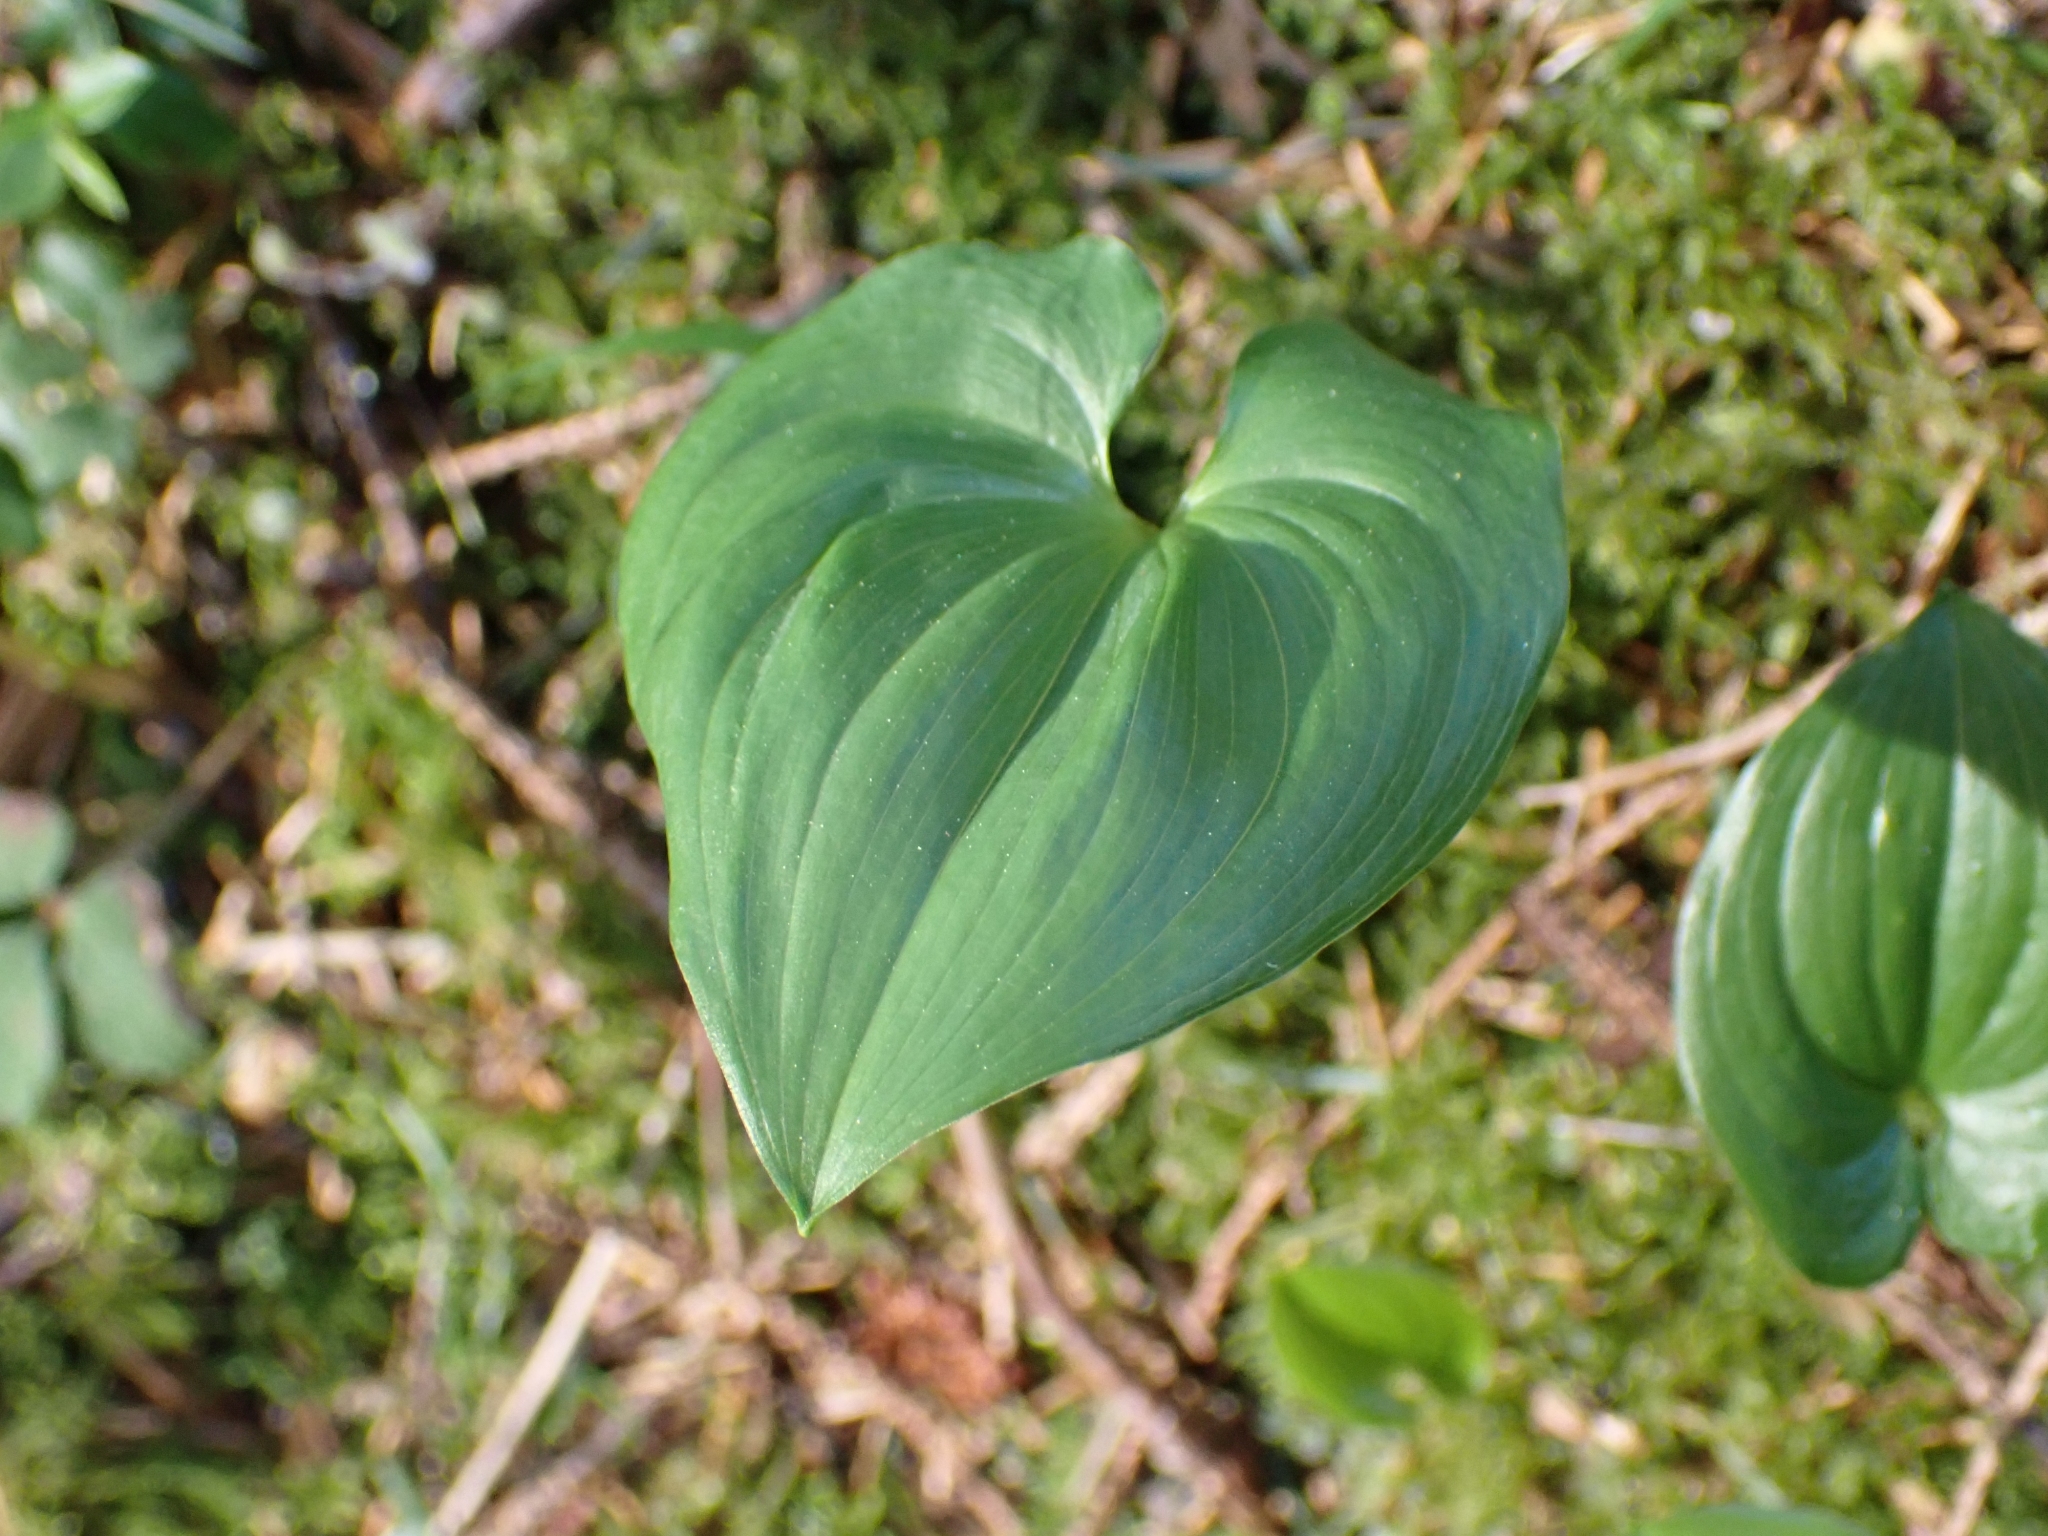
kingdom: Plantae
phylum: Tracheophyta
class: Liliopsida
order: Asparagales
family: Asparagaceae
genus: Maianthemum
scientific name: Maianthemum dilatatum
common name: False lily-of-the-valley
